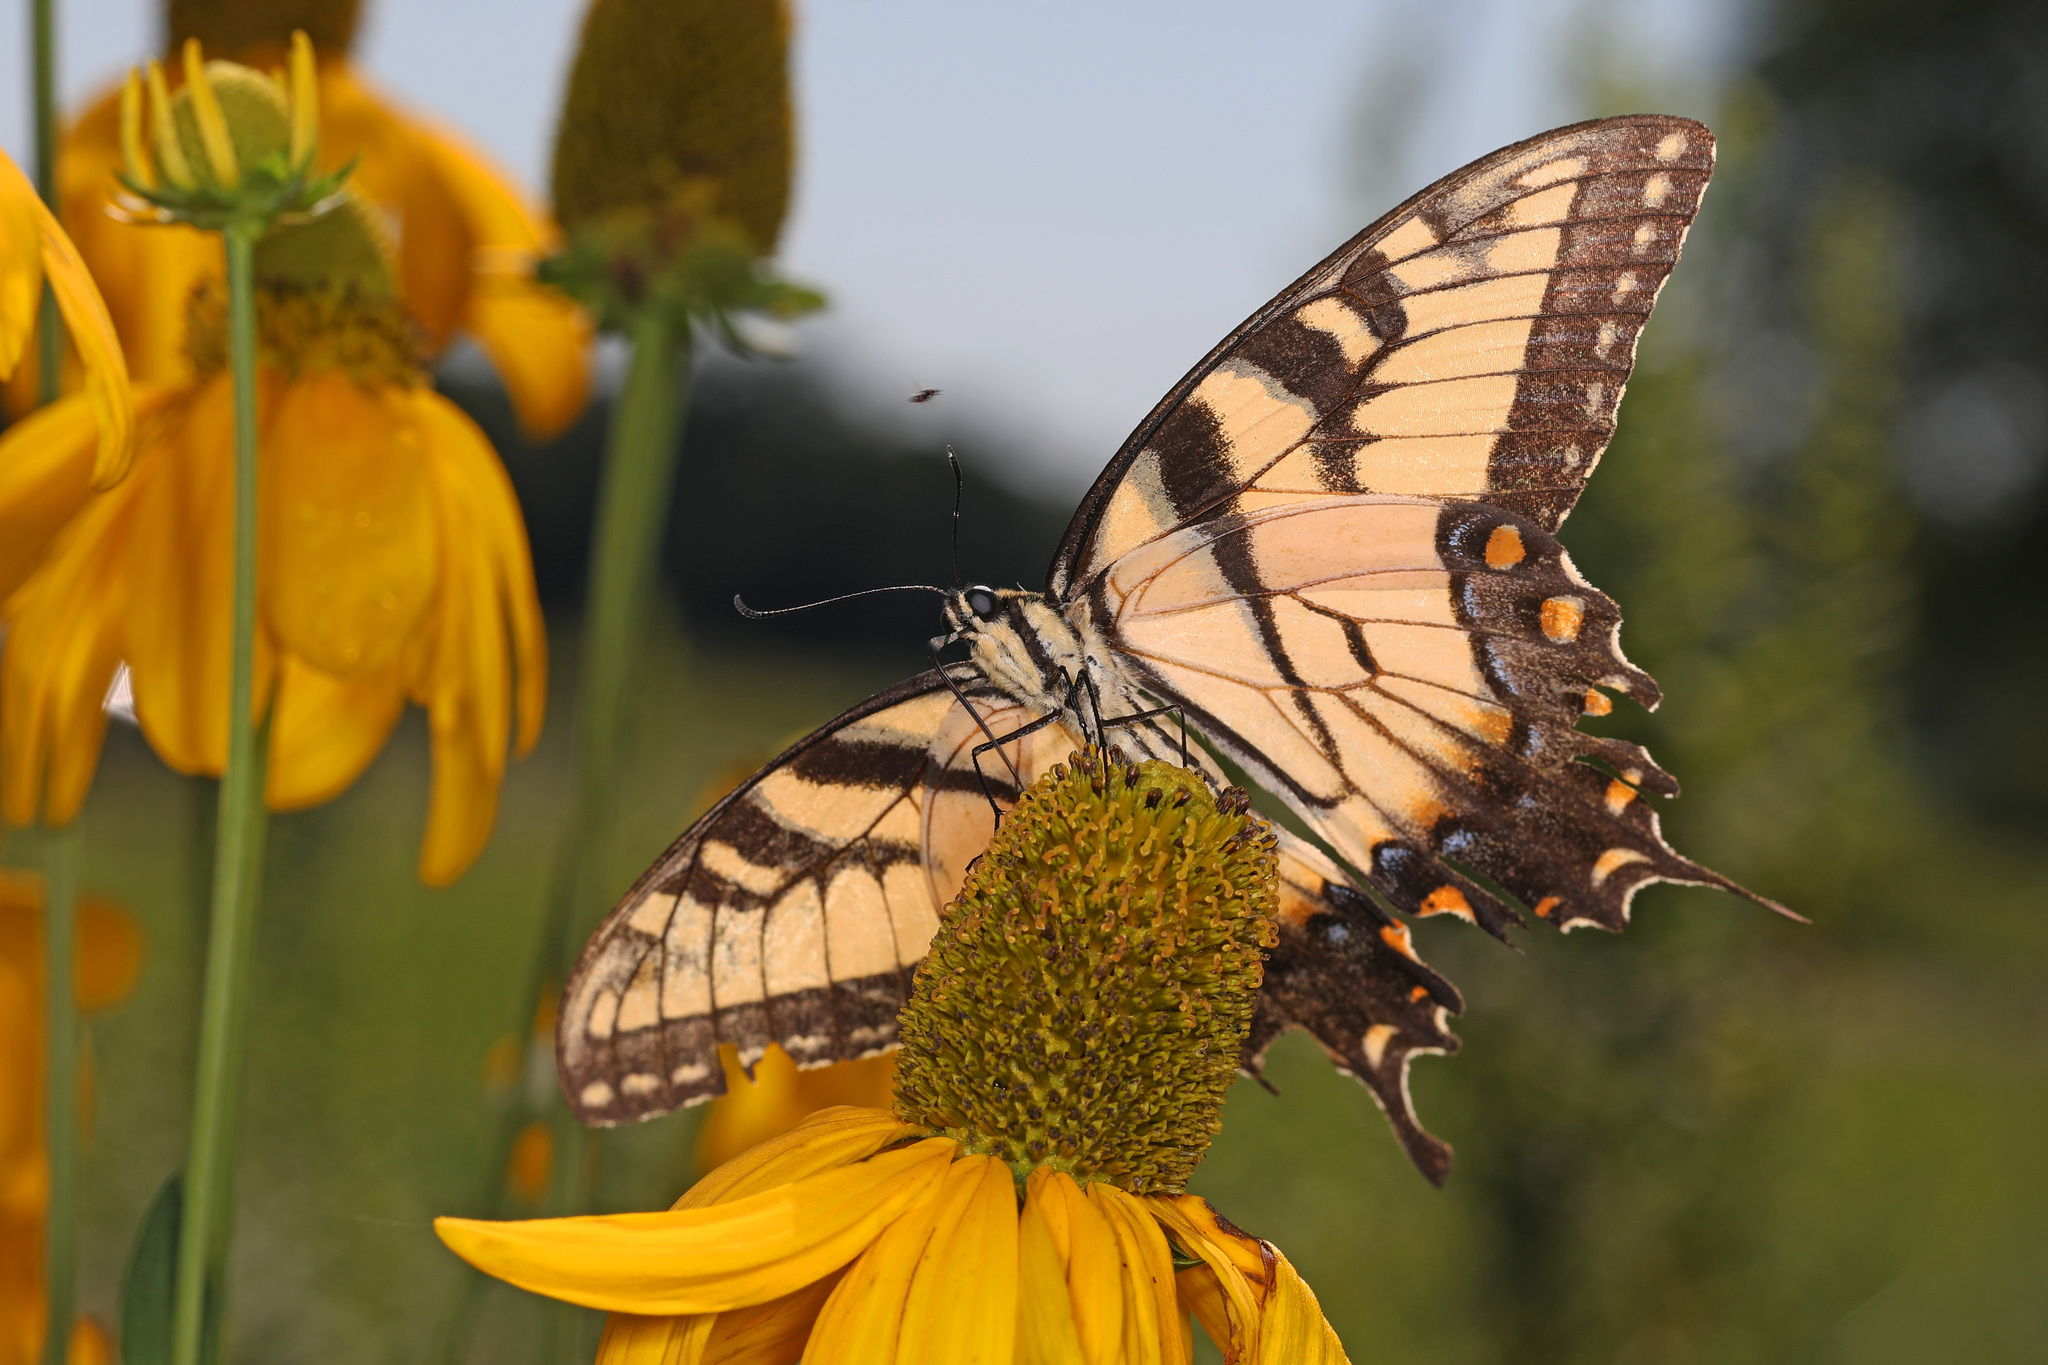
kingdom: Animalia
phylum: Arthropoda
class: Insecta
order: Lepidoptera
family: Papilionidae
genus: Papilio
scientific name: Papilio glaucus
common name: Tiger swallowtail
